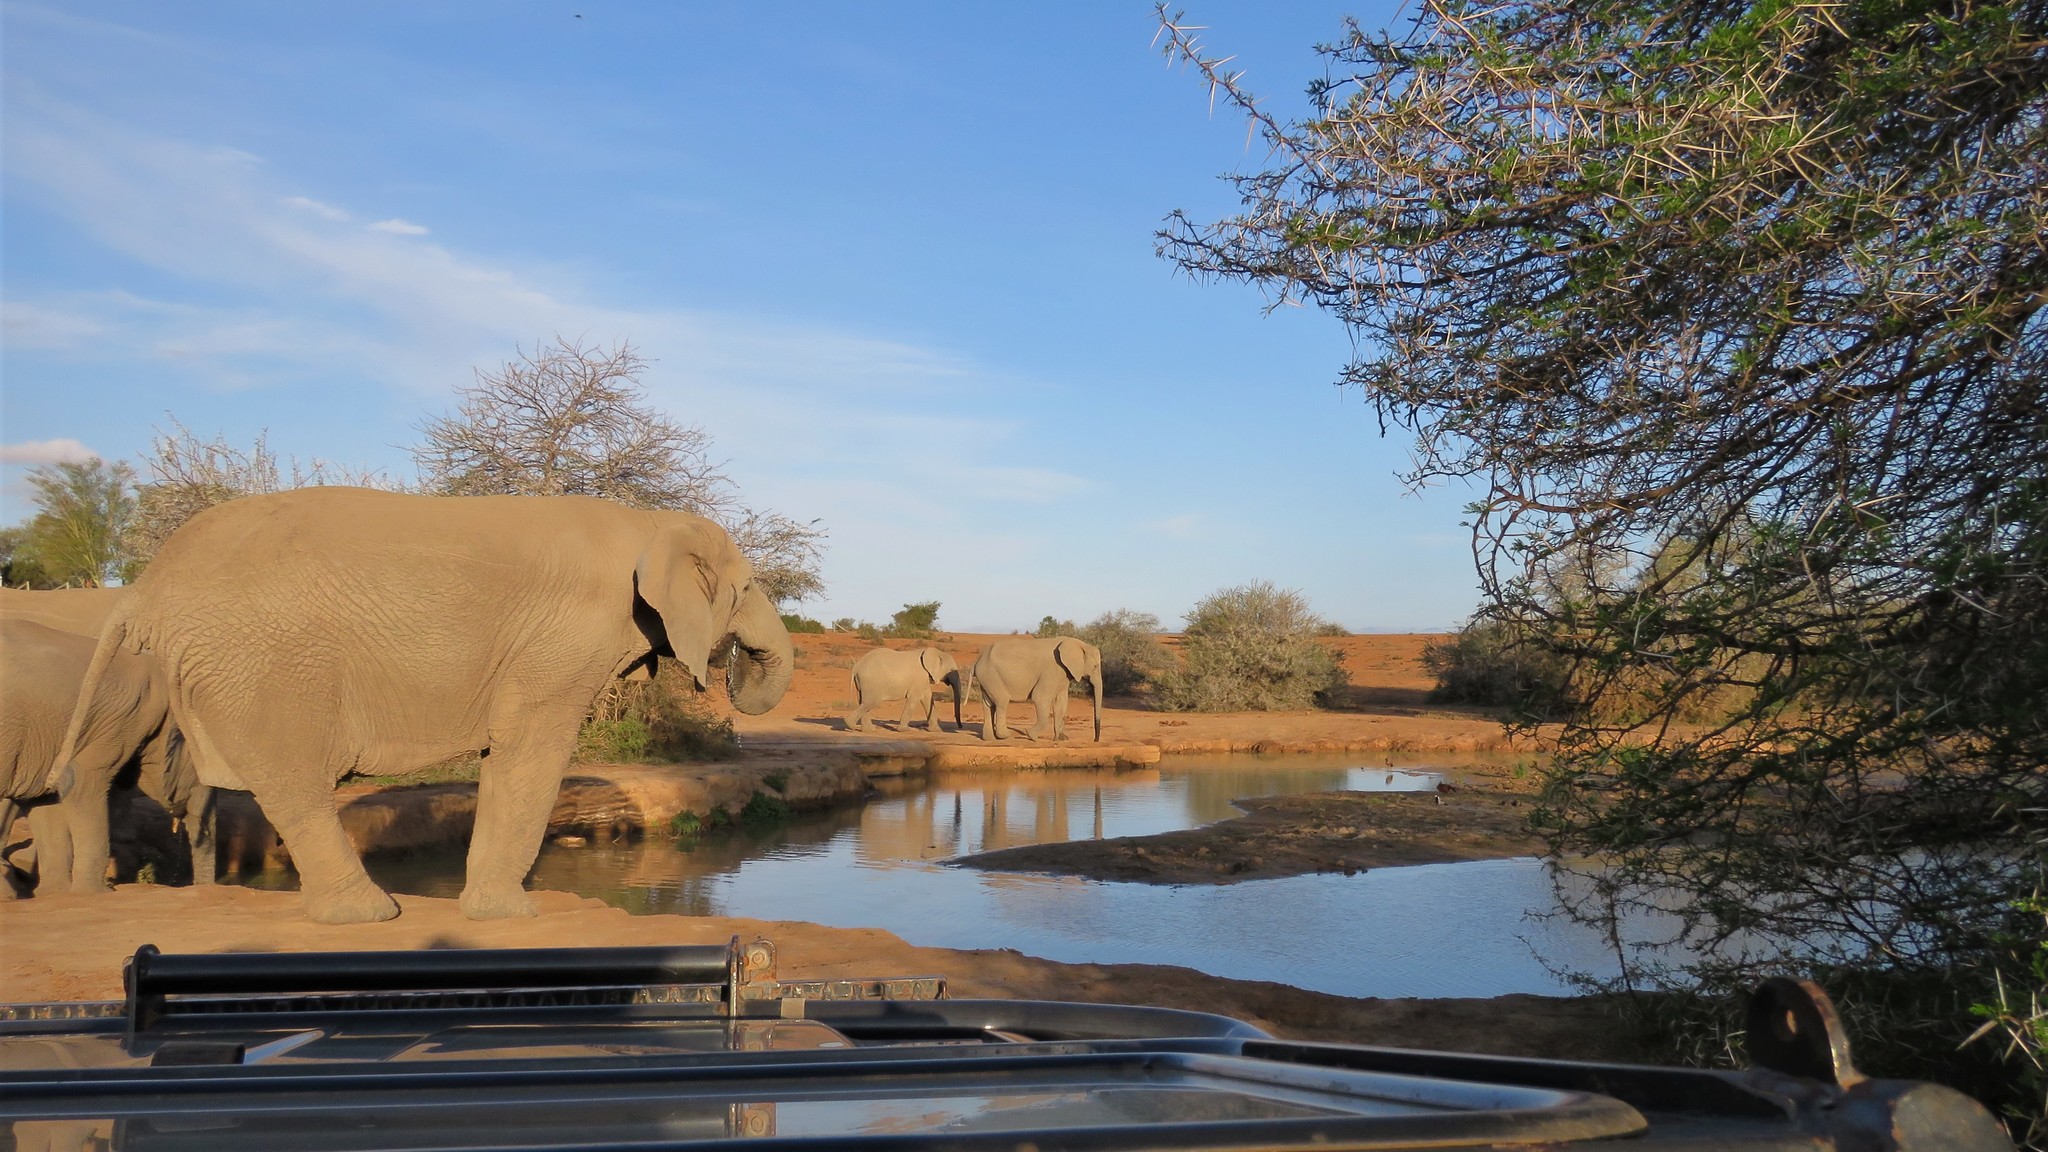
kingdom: Animalia
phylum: Chordata
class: Mammalia
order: Proboscidea
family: Elephantidae
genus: Loxodonta
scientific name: Loxodonta africana
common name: African elephant
